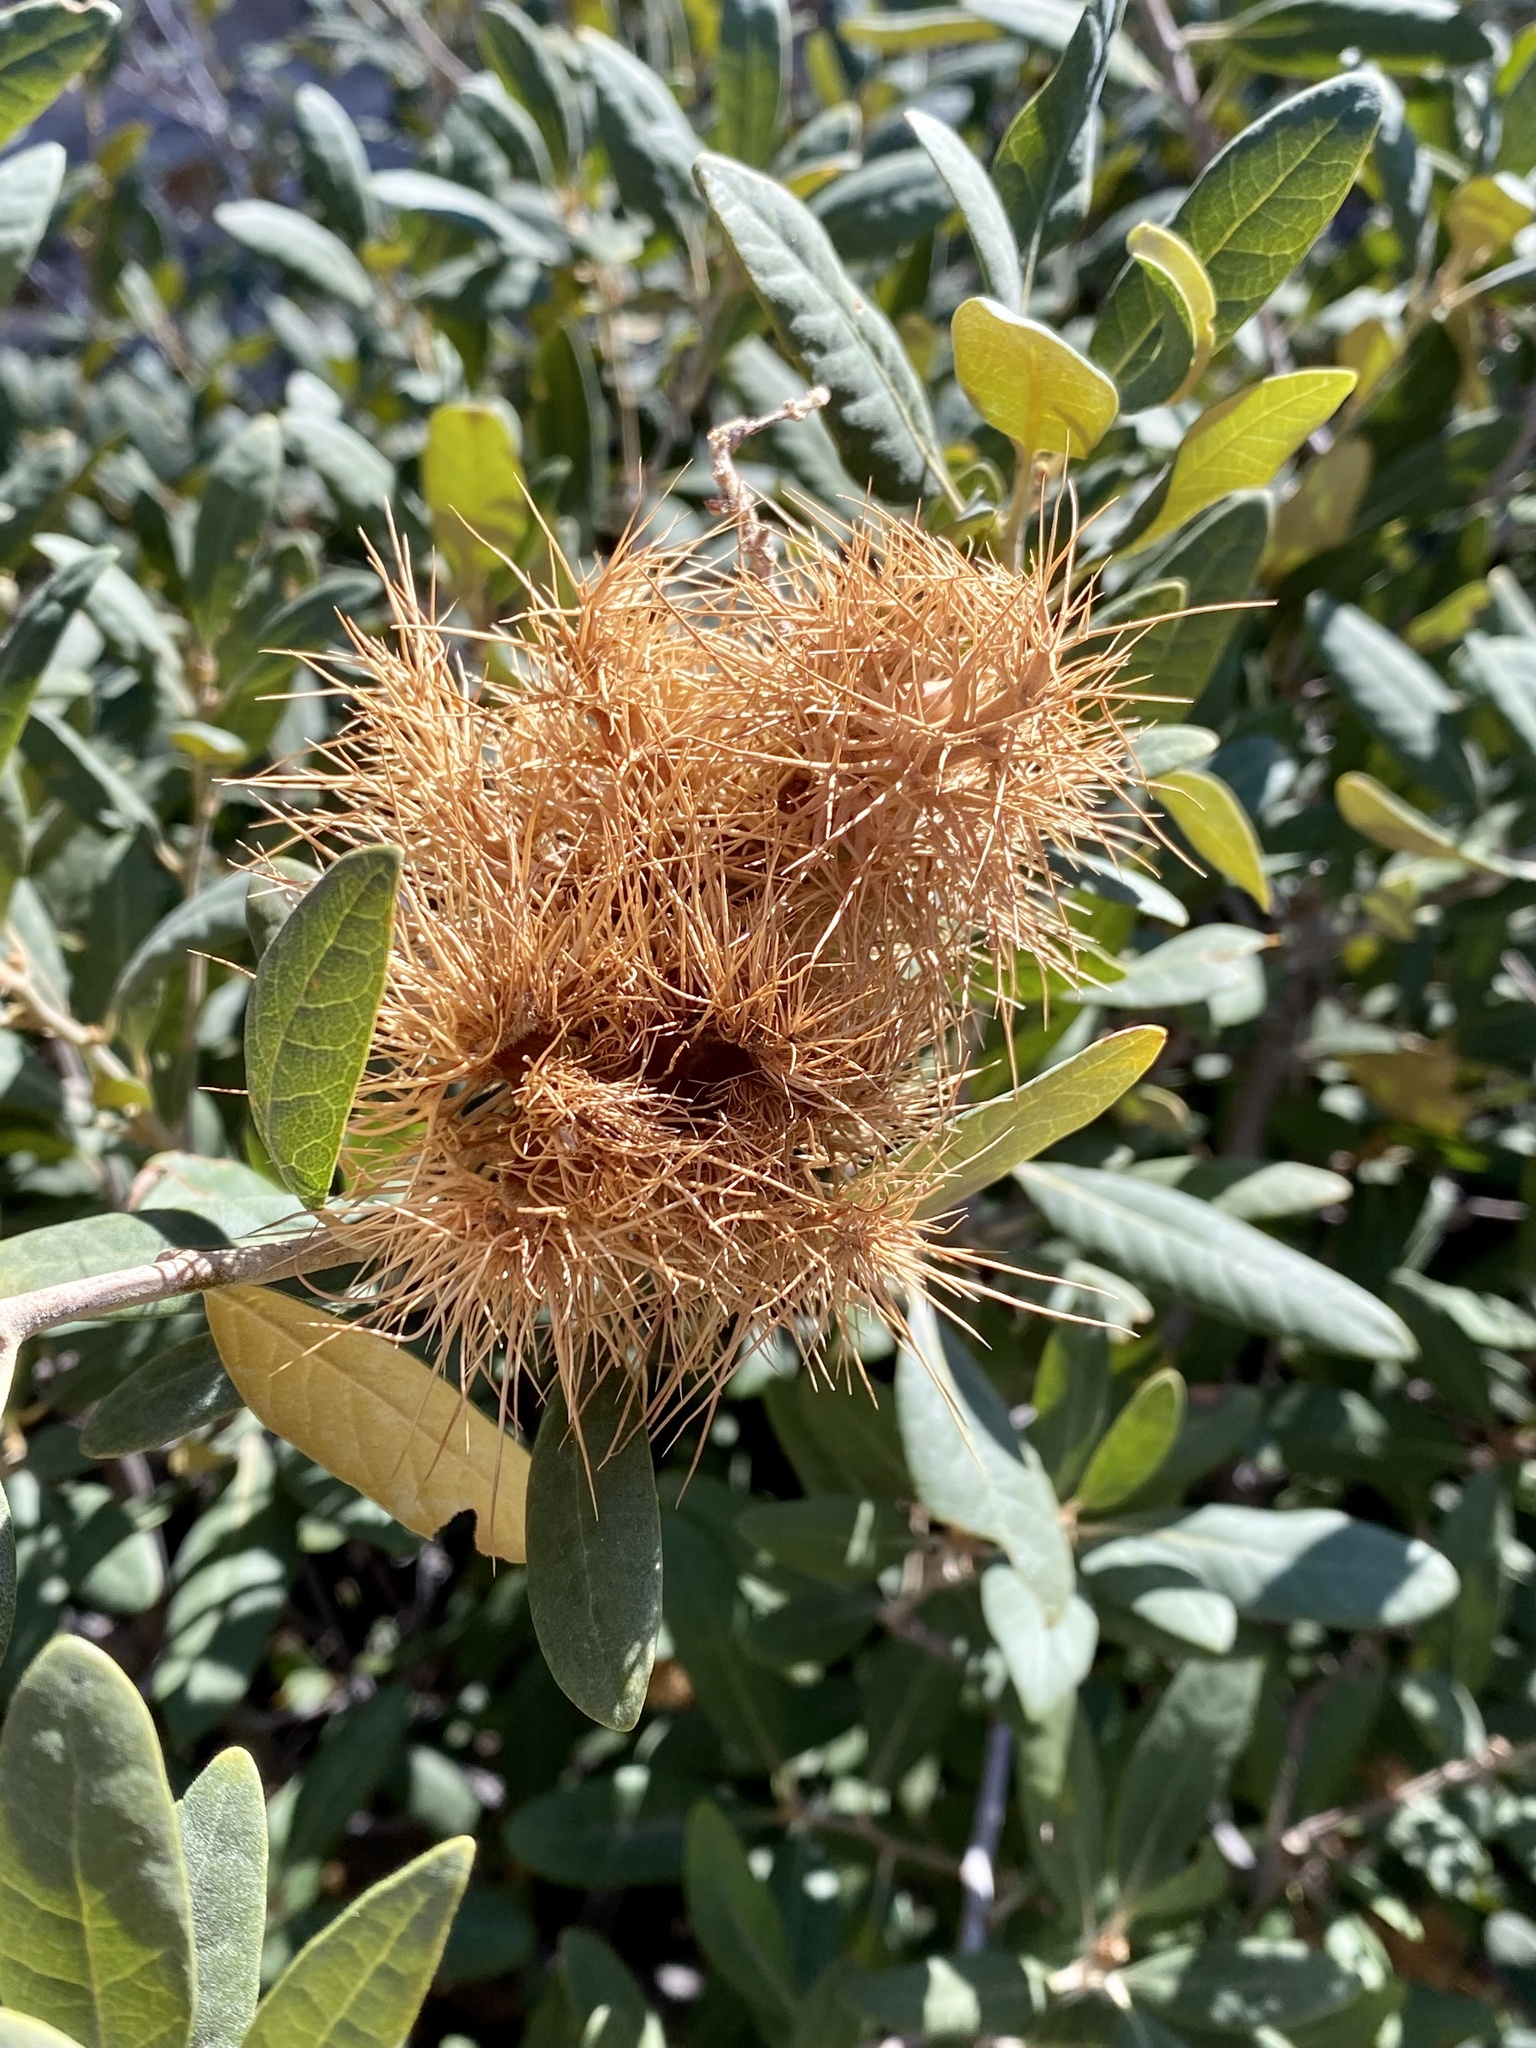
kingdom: Plantae
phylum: Tracheophyta
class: Magnoliopsida
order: Fagales
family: Fagaceae
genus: Chrysolepis
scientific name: Chrysolepis sempervirens
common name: Bush chinquapin
